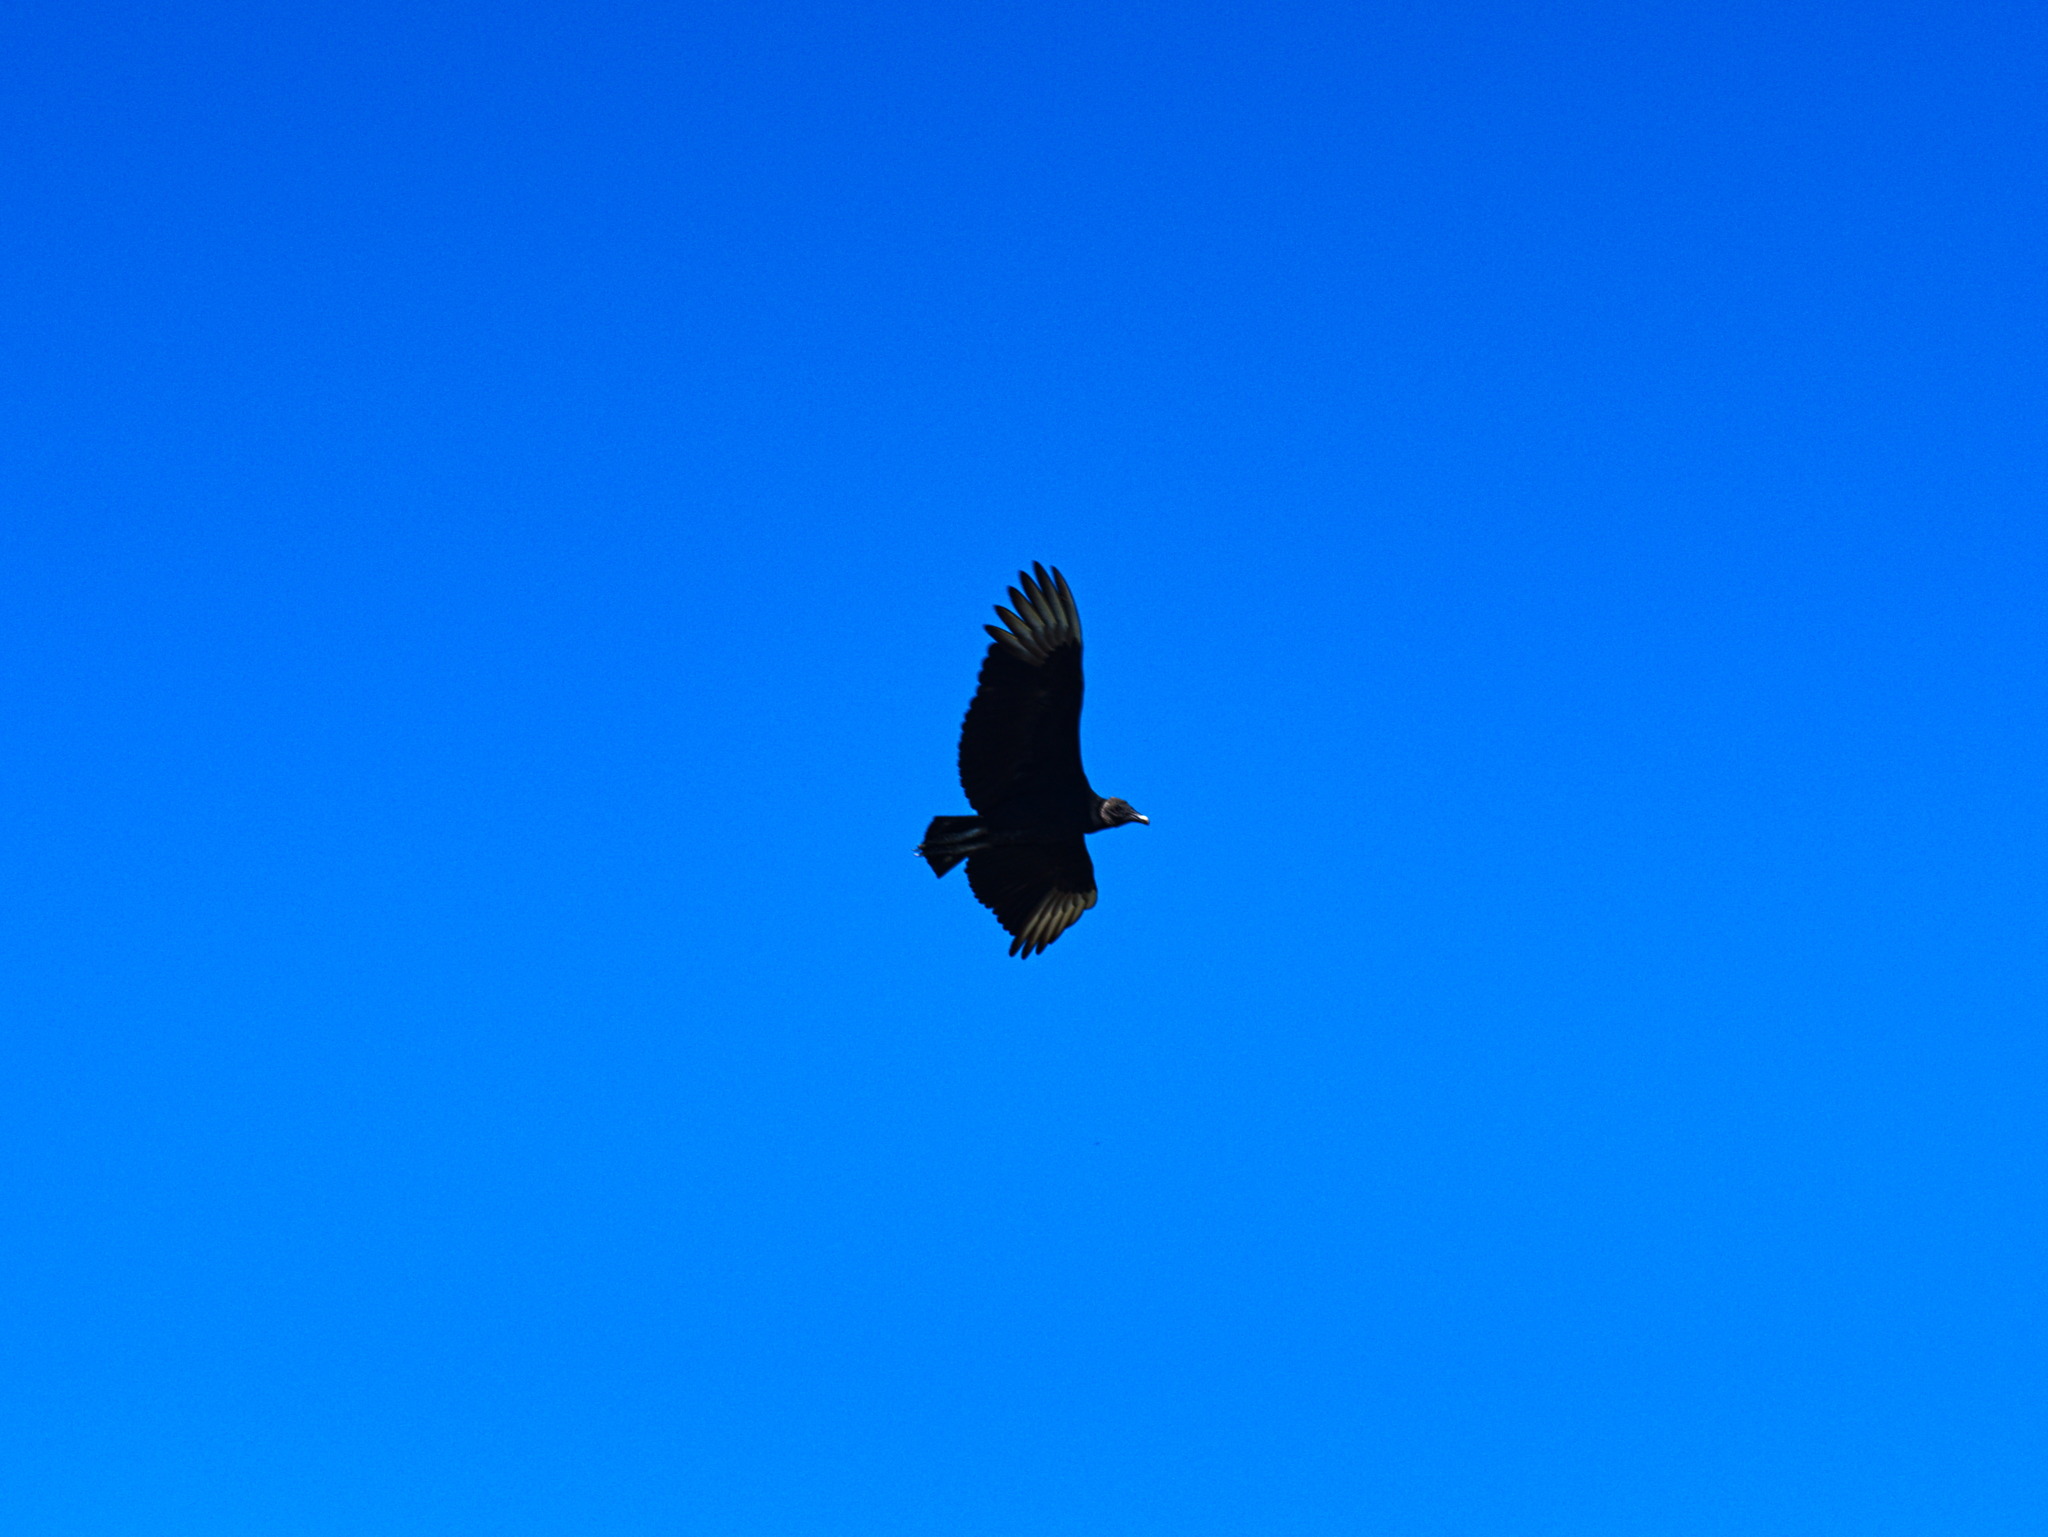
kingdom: Animalia
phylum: Chordata
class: Aves
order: Accipitriformes
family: Cathartidae
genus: Coragyps
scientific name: Coragyps atratus
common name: Black vulture
